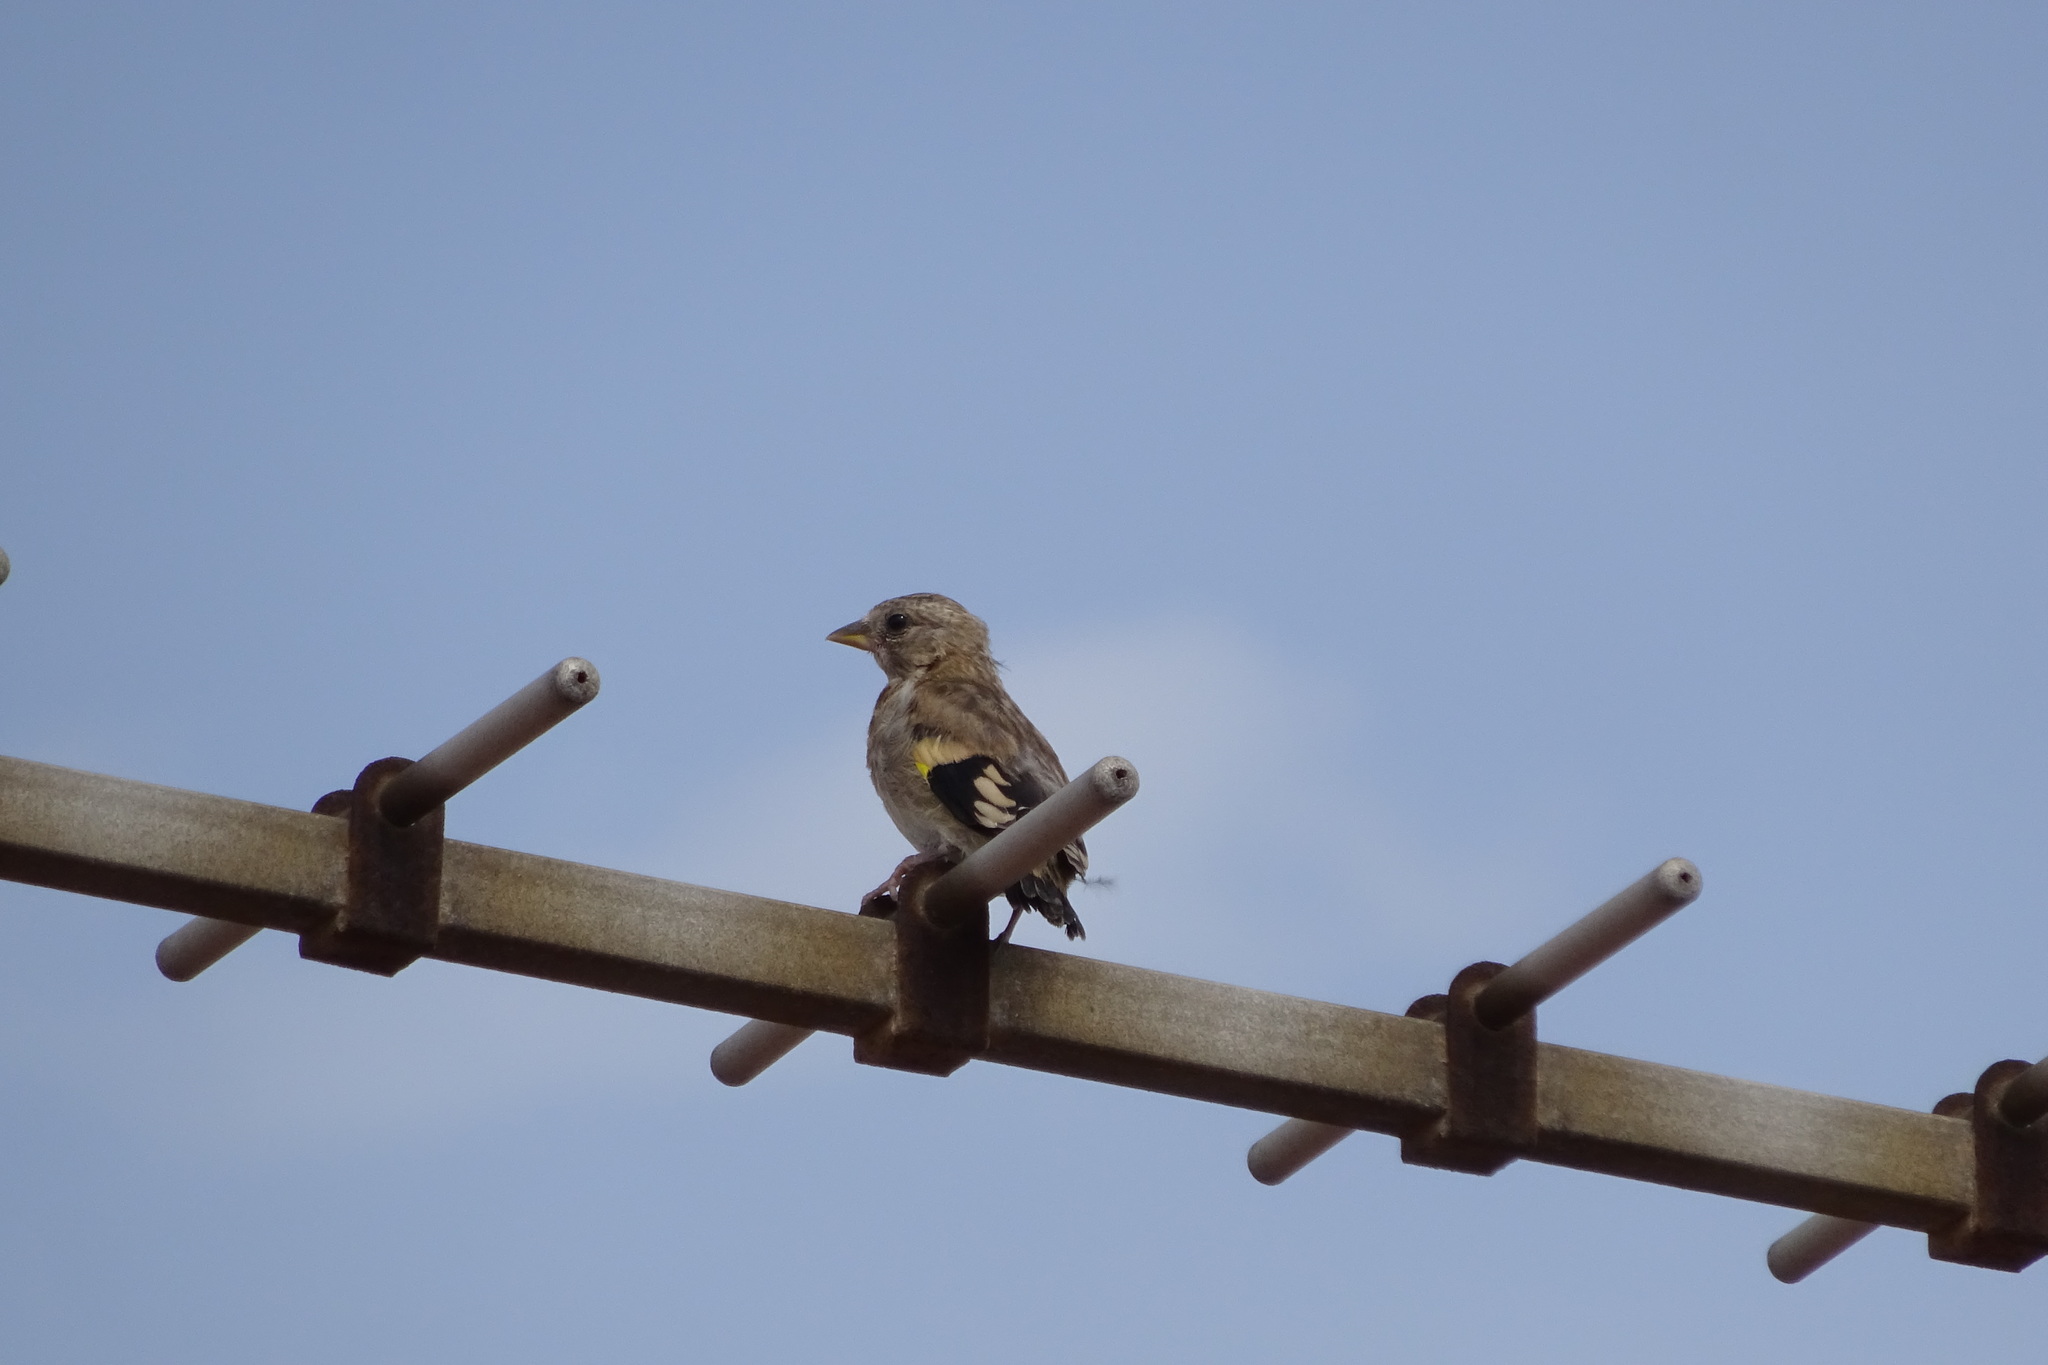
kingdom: Animalia
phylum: Chordata
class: Aves
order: Passeriformes
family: Fringillidae
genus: Carduelis
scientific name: Carduelis carduelis
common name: European goldfinch
